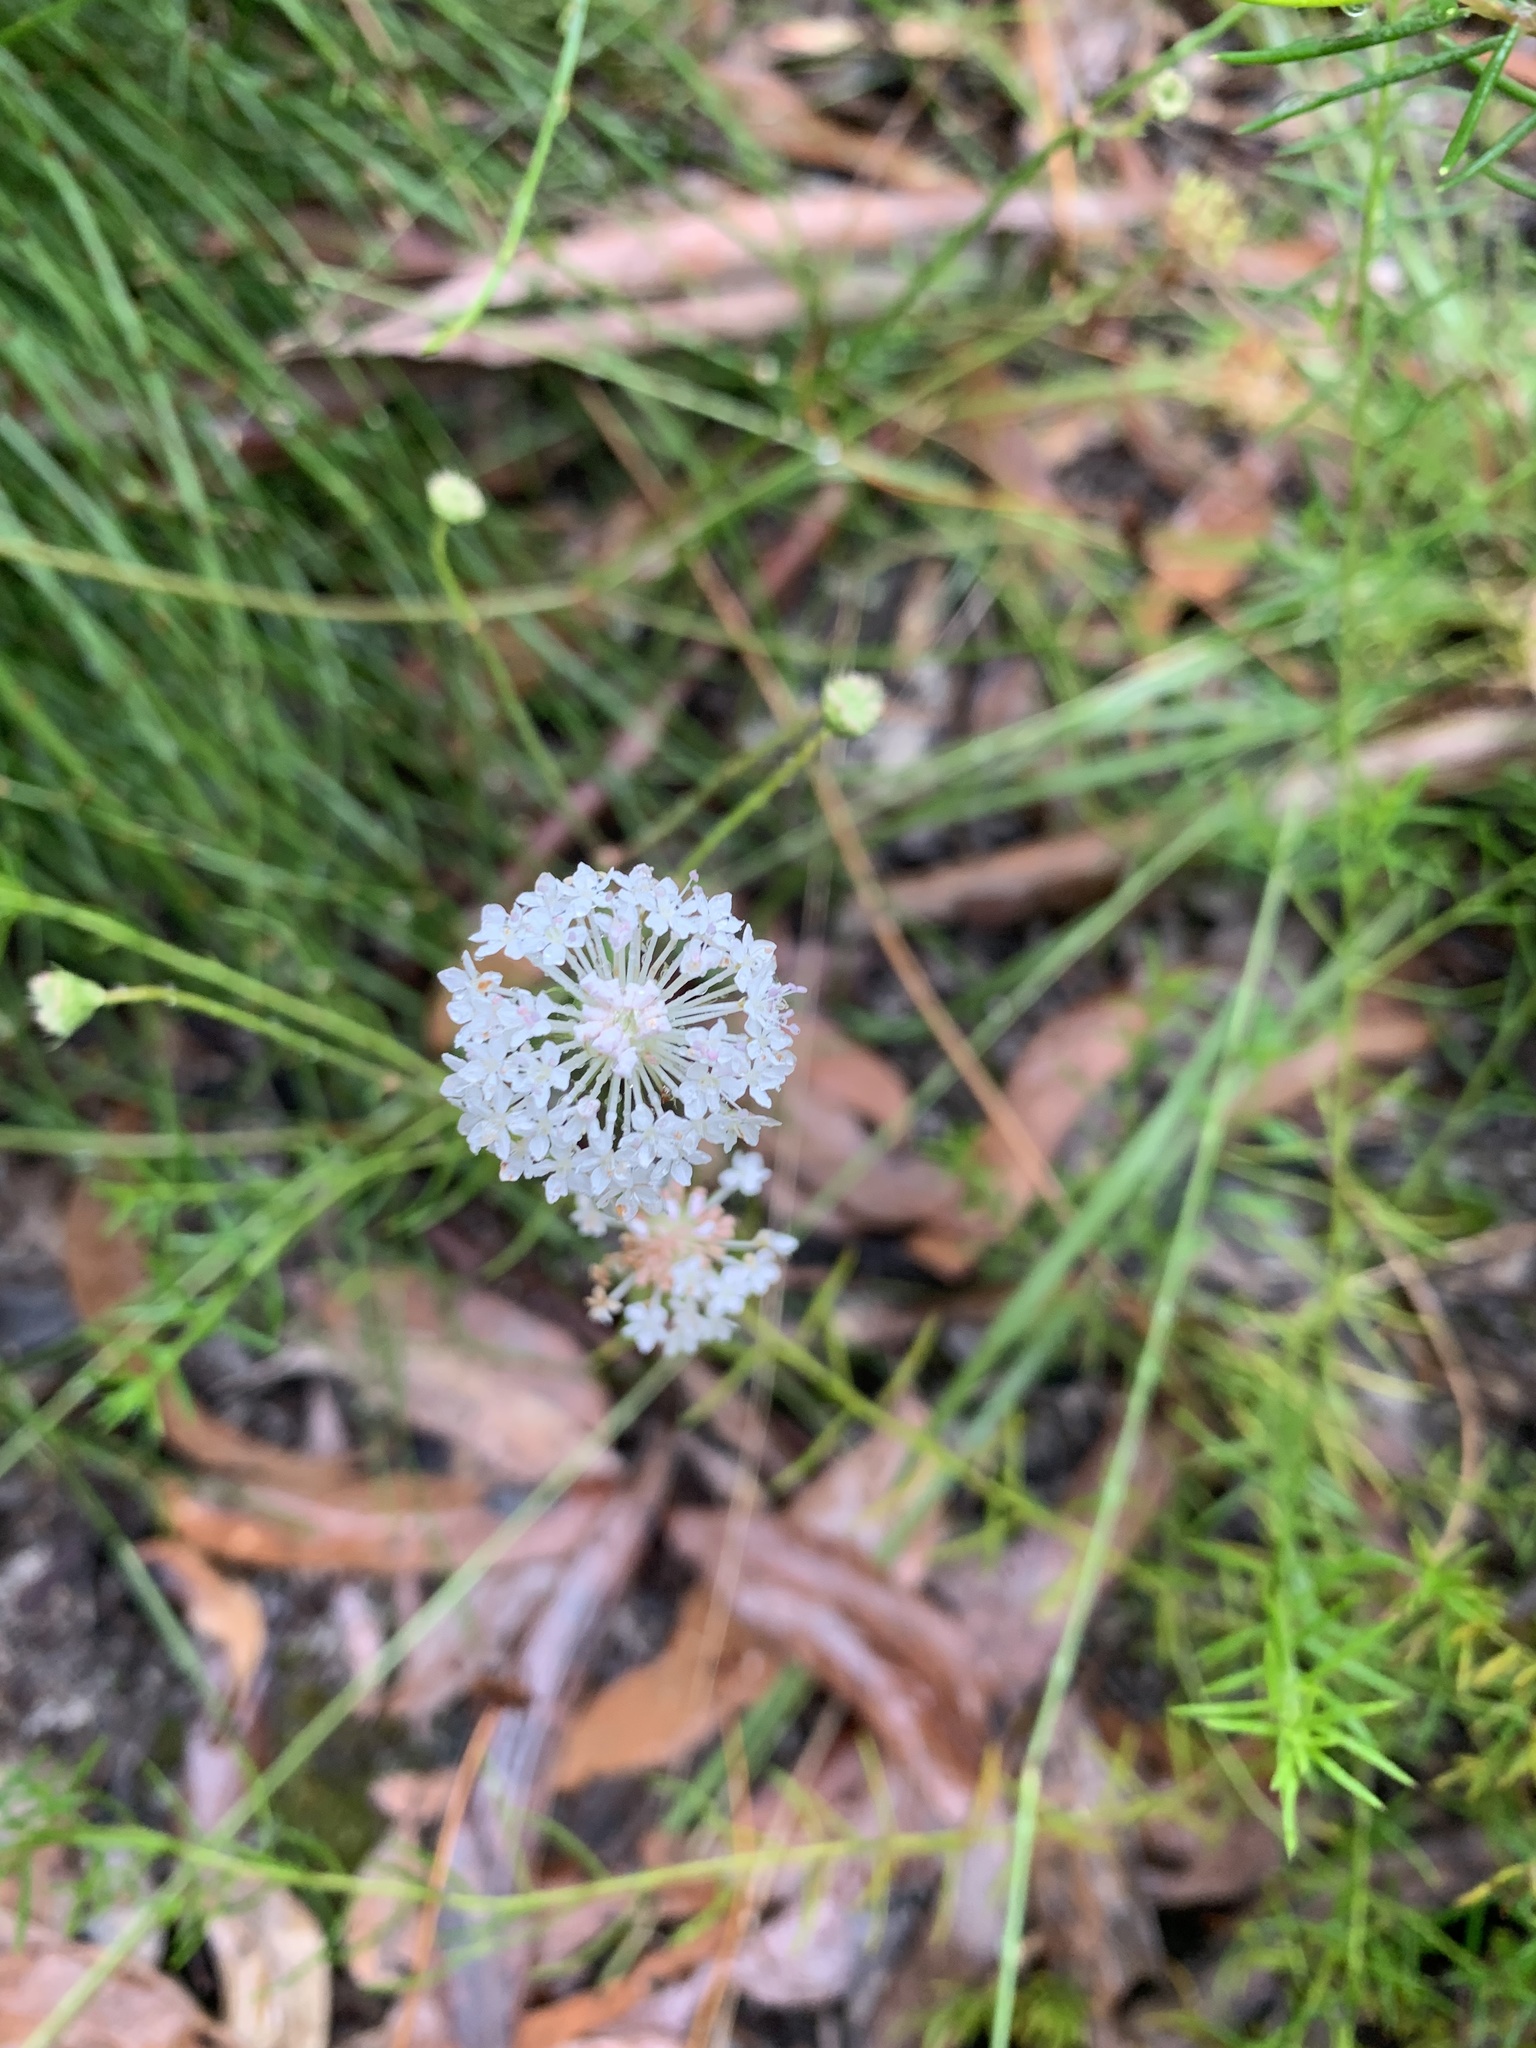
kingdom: Plantae
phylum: Tracheophyta
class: Magnoliopsida
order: Apiales
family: Araliaceae
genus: Trachymene
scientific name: Trachymene incisa
